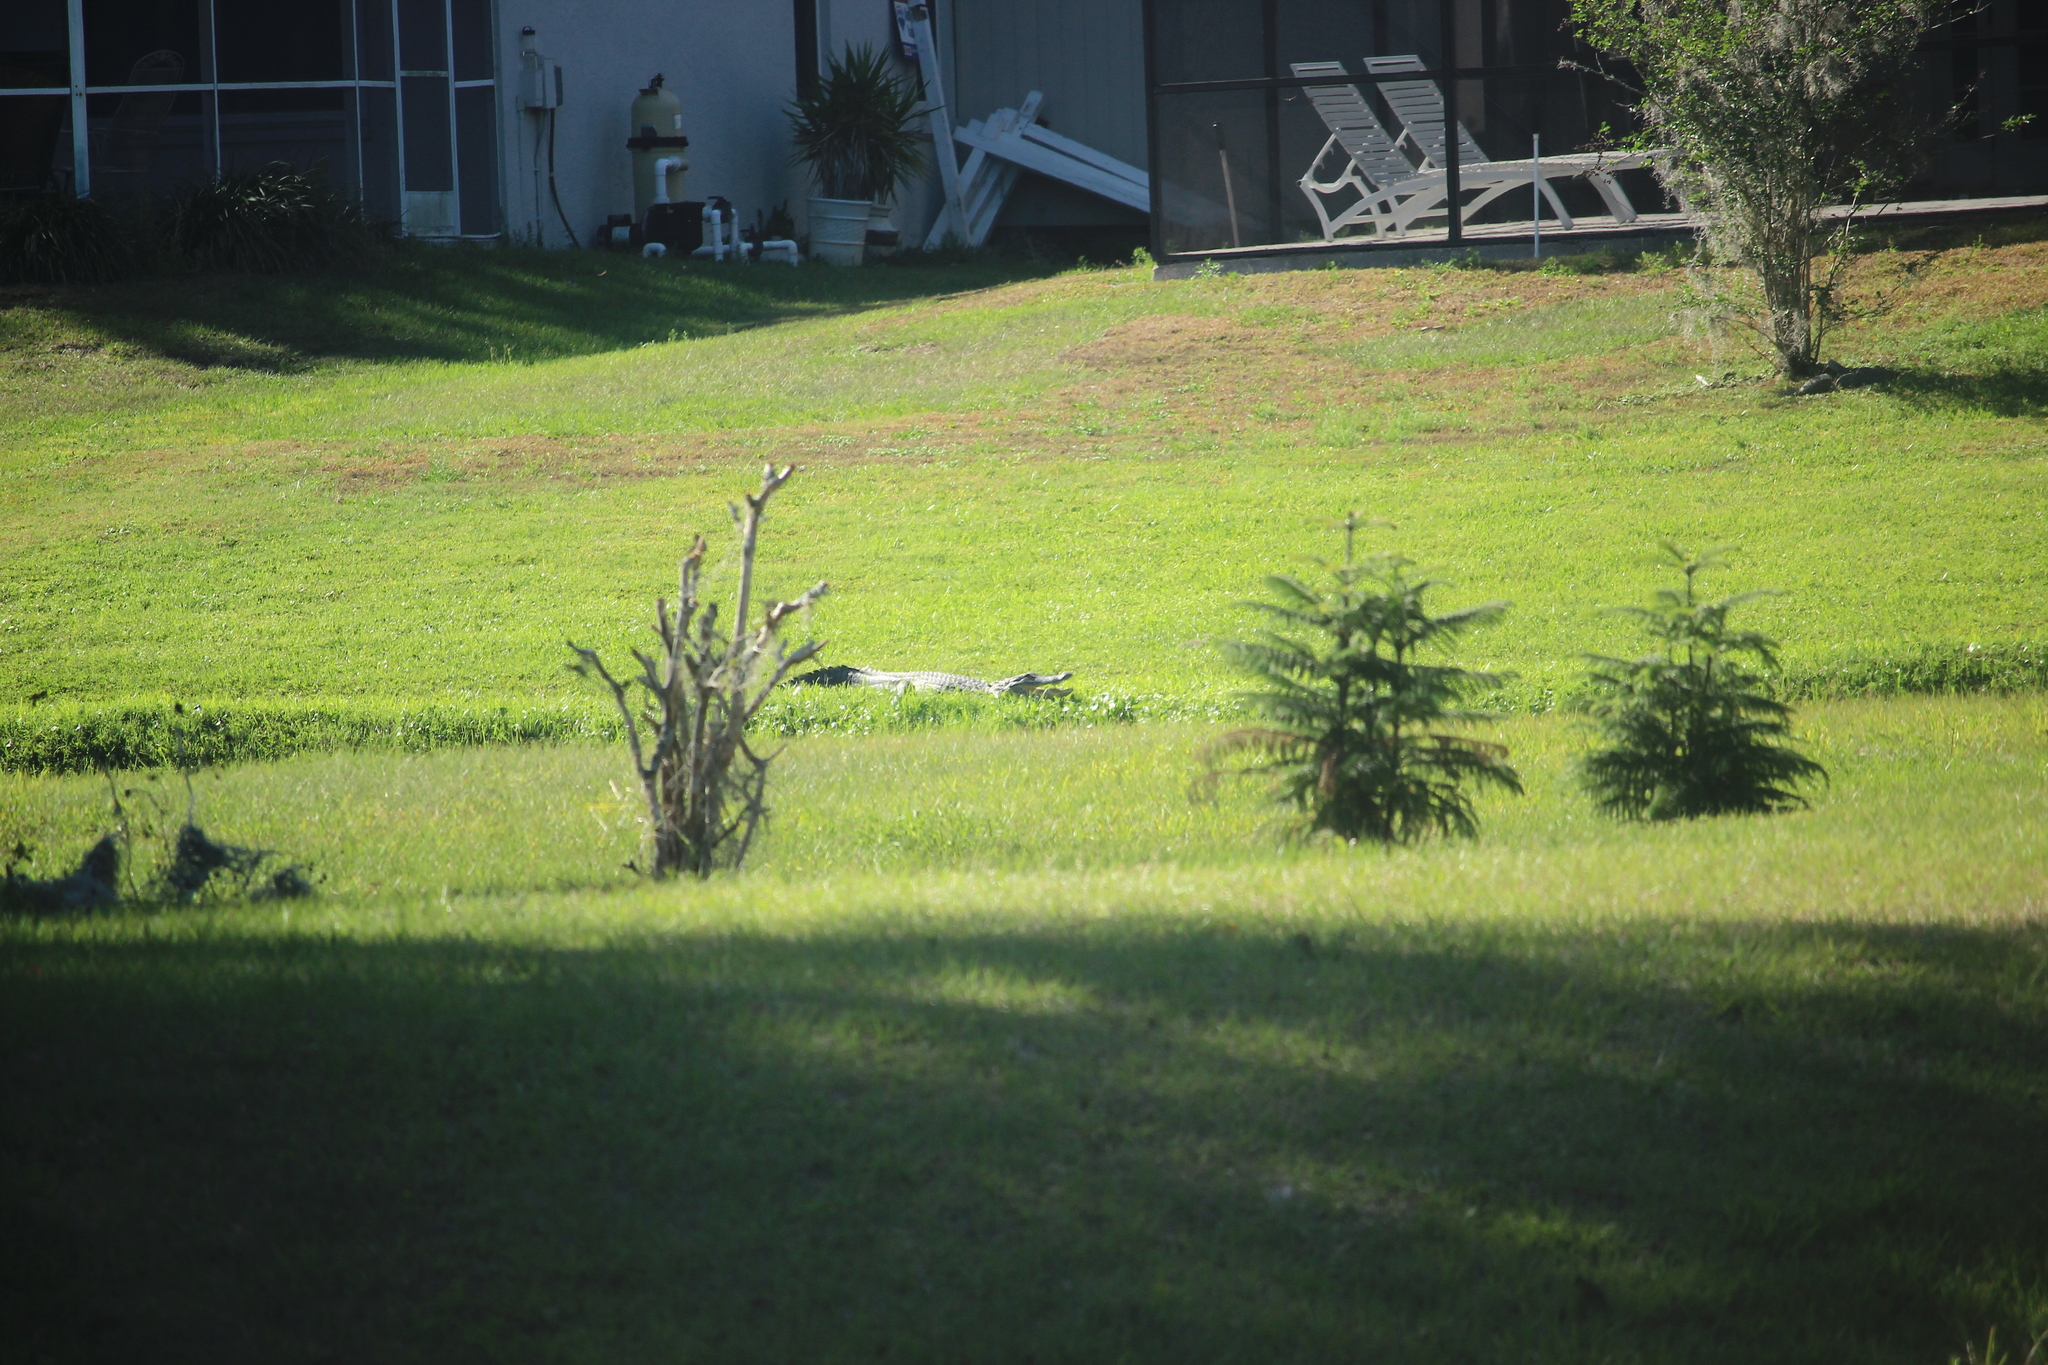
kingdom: Animalia
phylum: Chordata
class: Crocodylia
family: Alligatoridae
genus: Alligator
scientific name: Alligator mississippiensis
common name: American alligator
